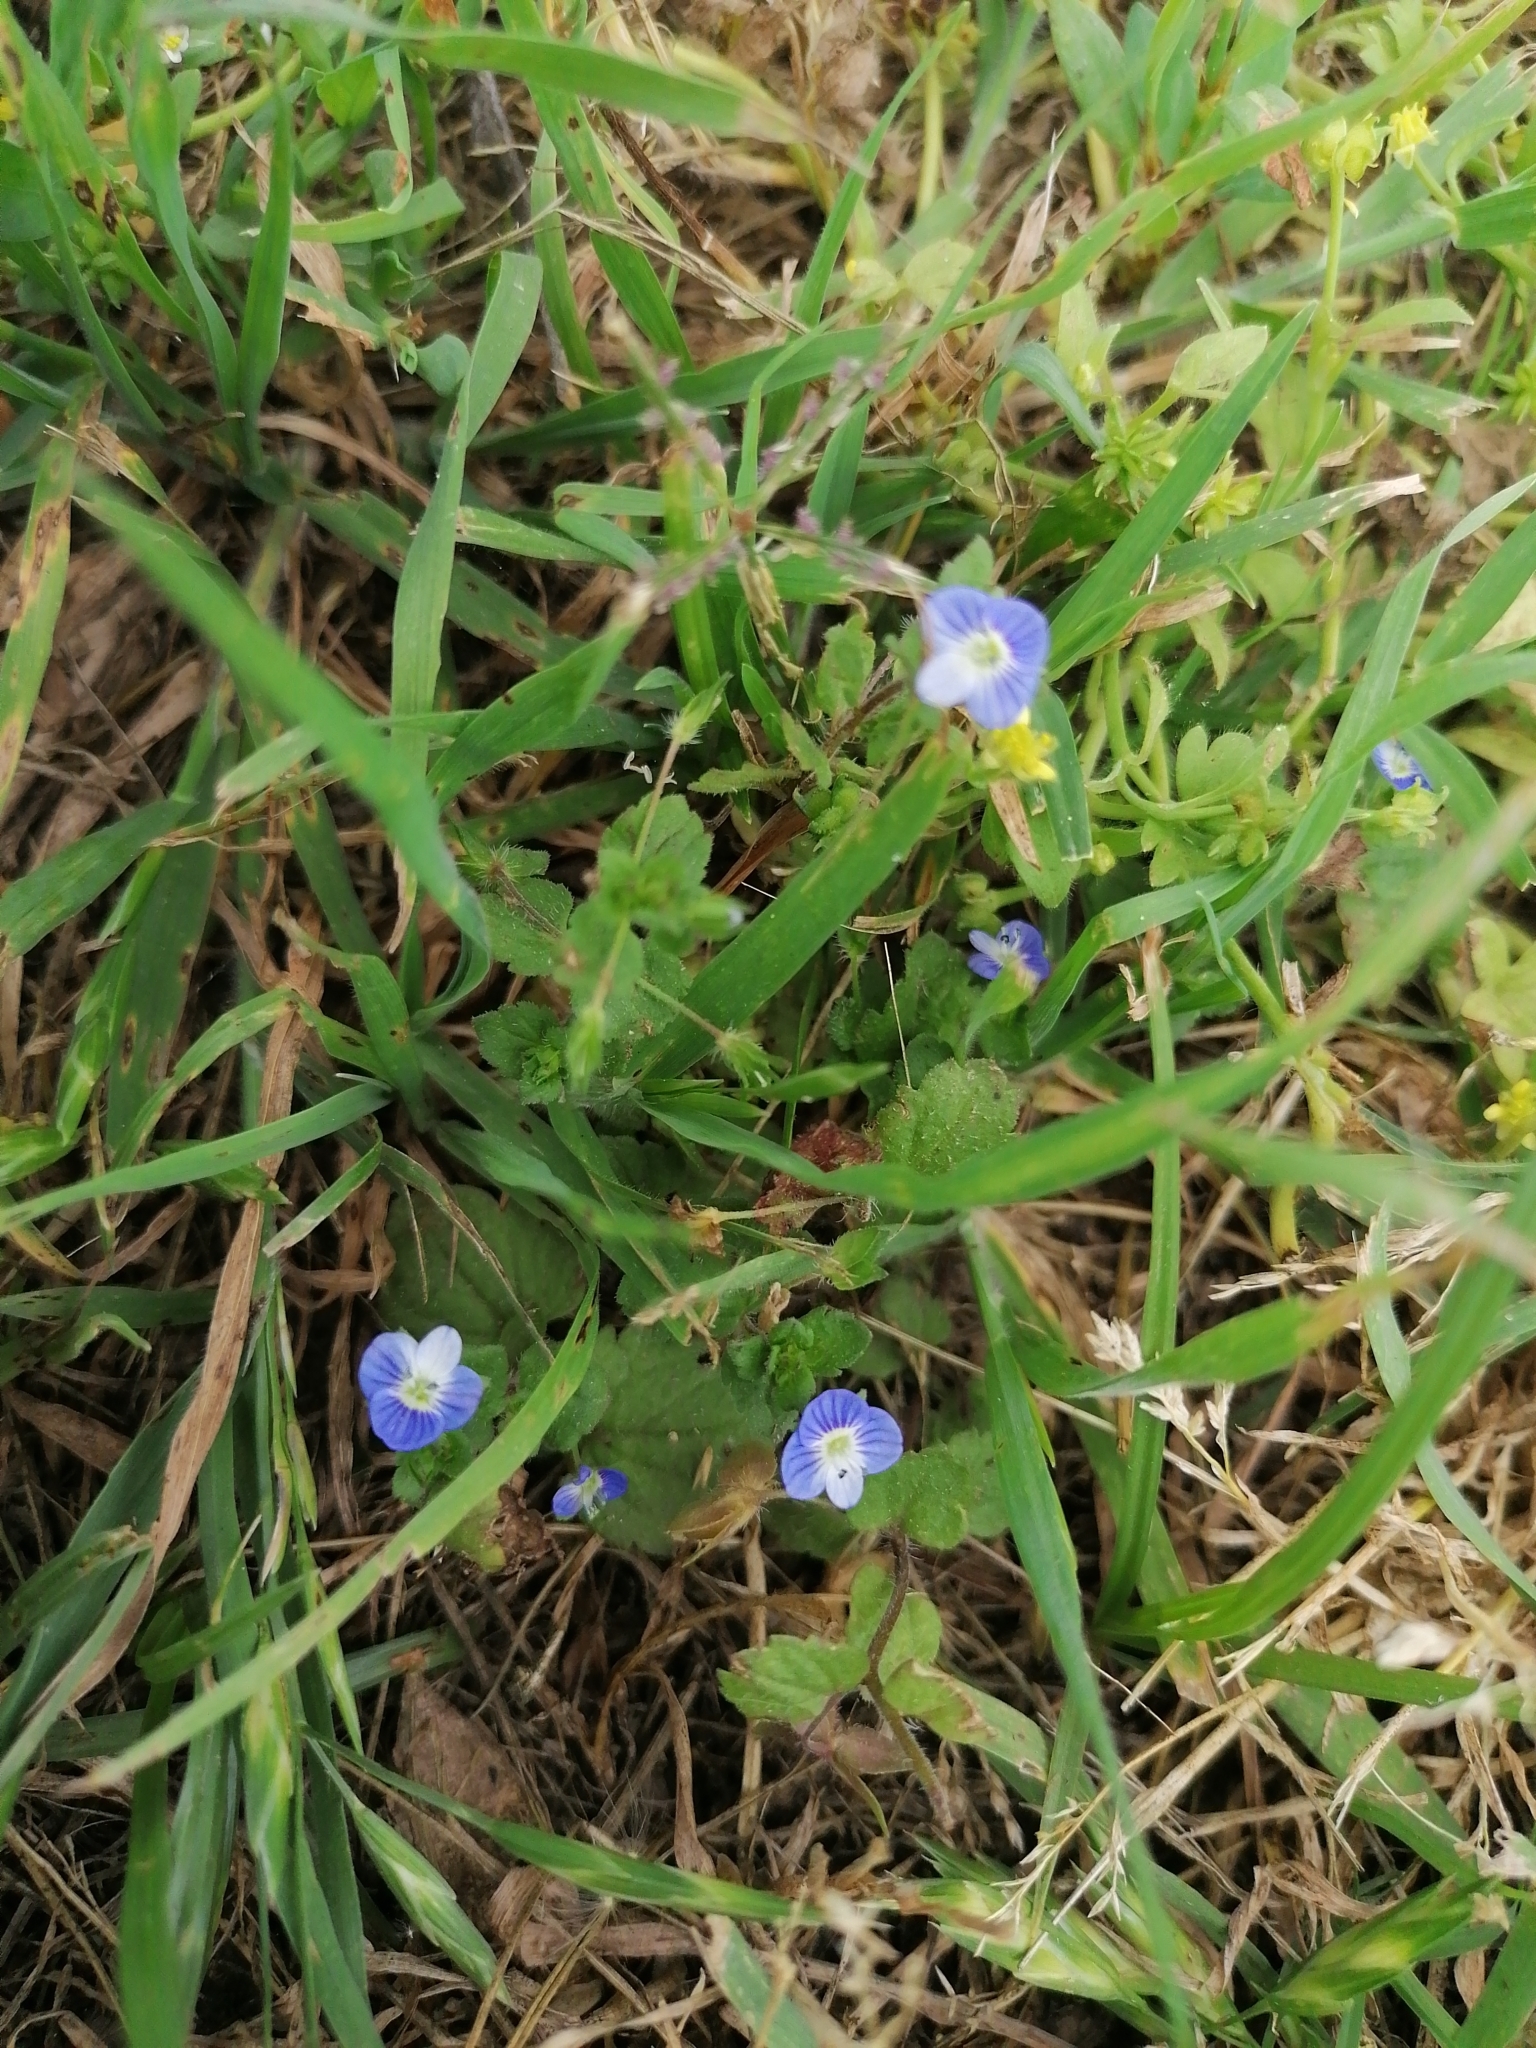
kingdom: Plantae
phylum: Tracheophyta
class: Magnoliopsida
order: Lamiales
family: Plantaginaceae
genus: Veronica
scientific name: Veronica persica
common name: Common field-speedwell
